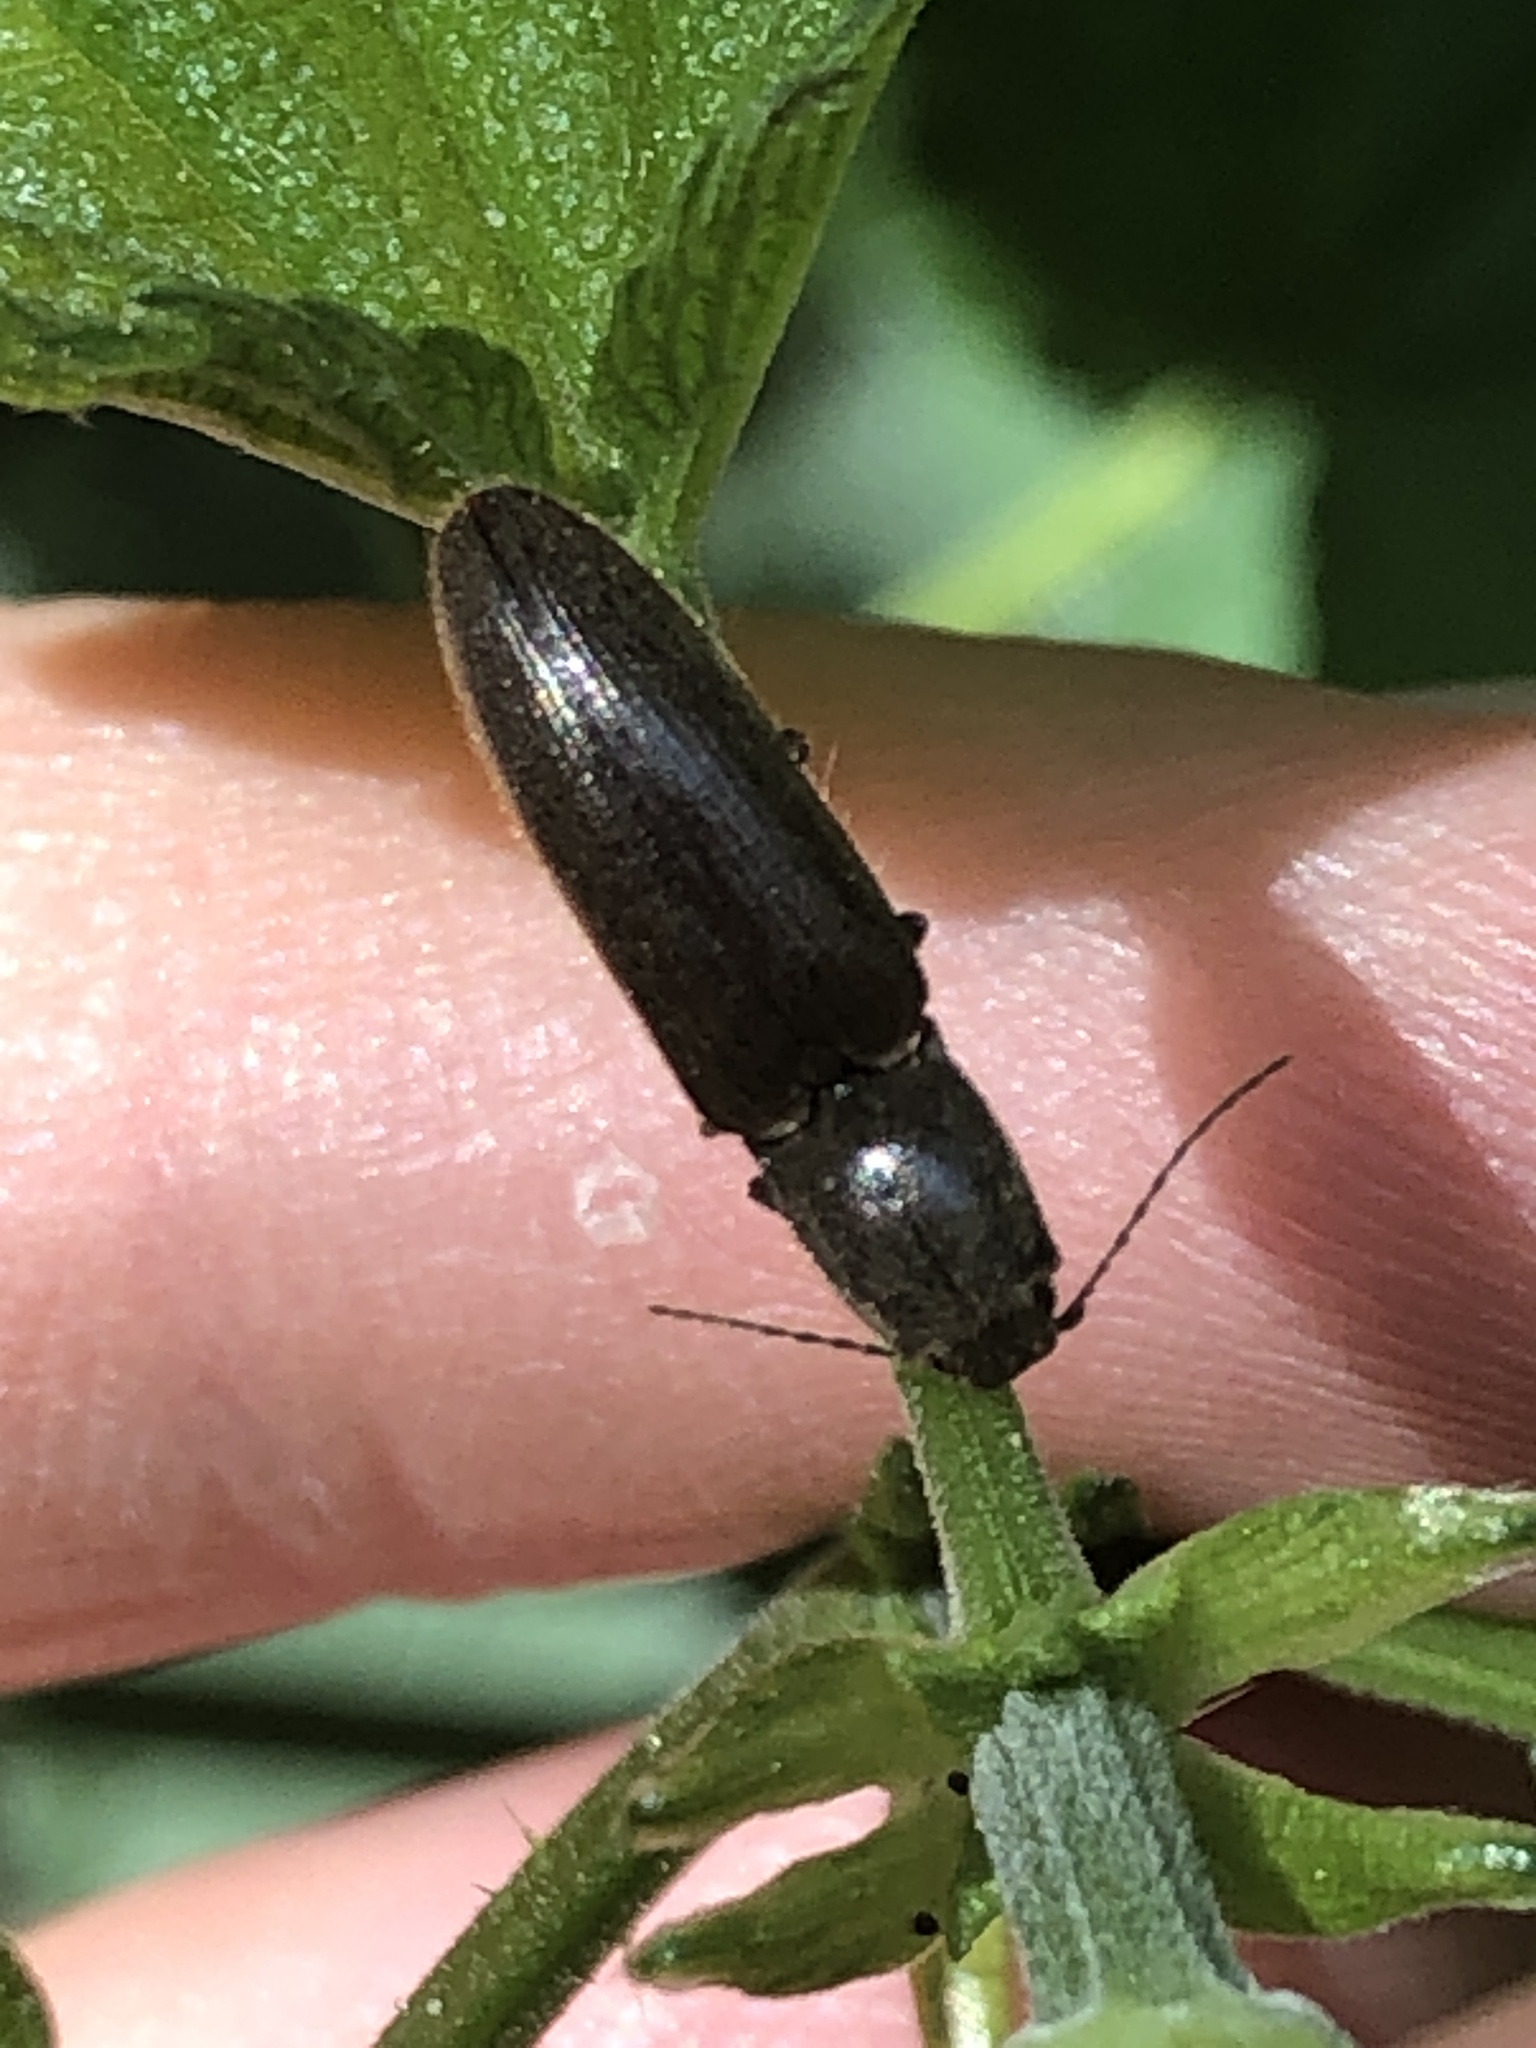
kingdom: Animalia
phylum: Arthropoda
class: Insecta
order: Coleoptera
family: Elateridae
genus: Athous
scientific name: Athous haemorrhoidalis
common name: Red-brown click beetle
